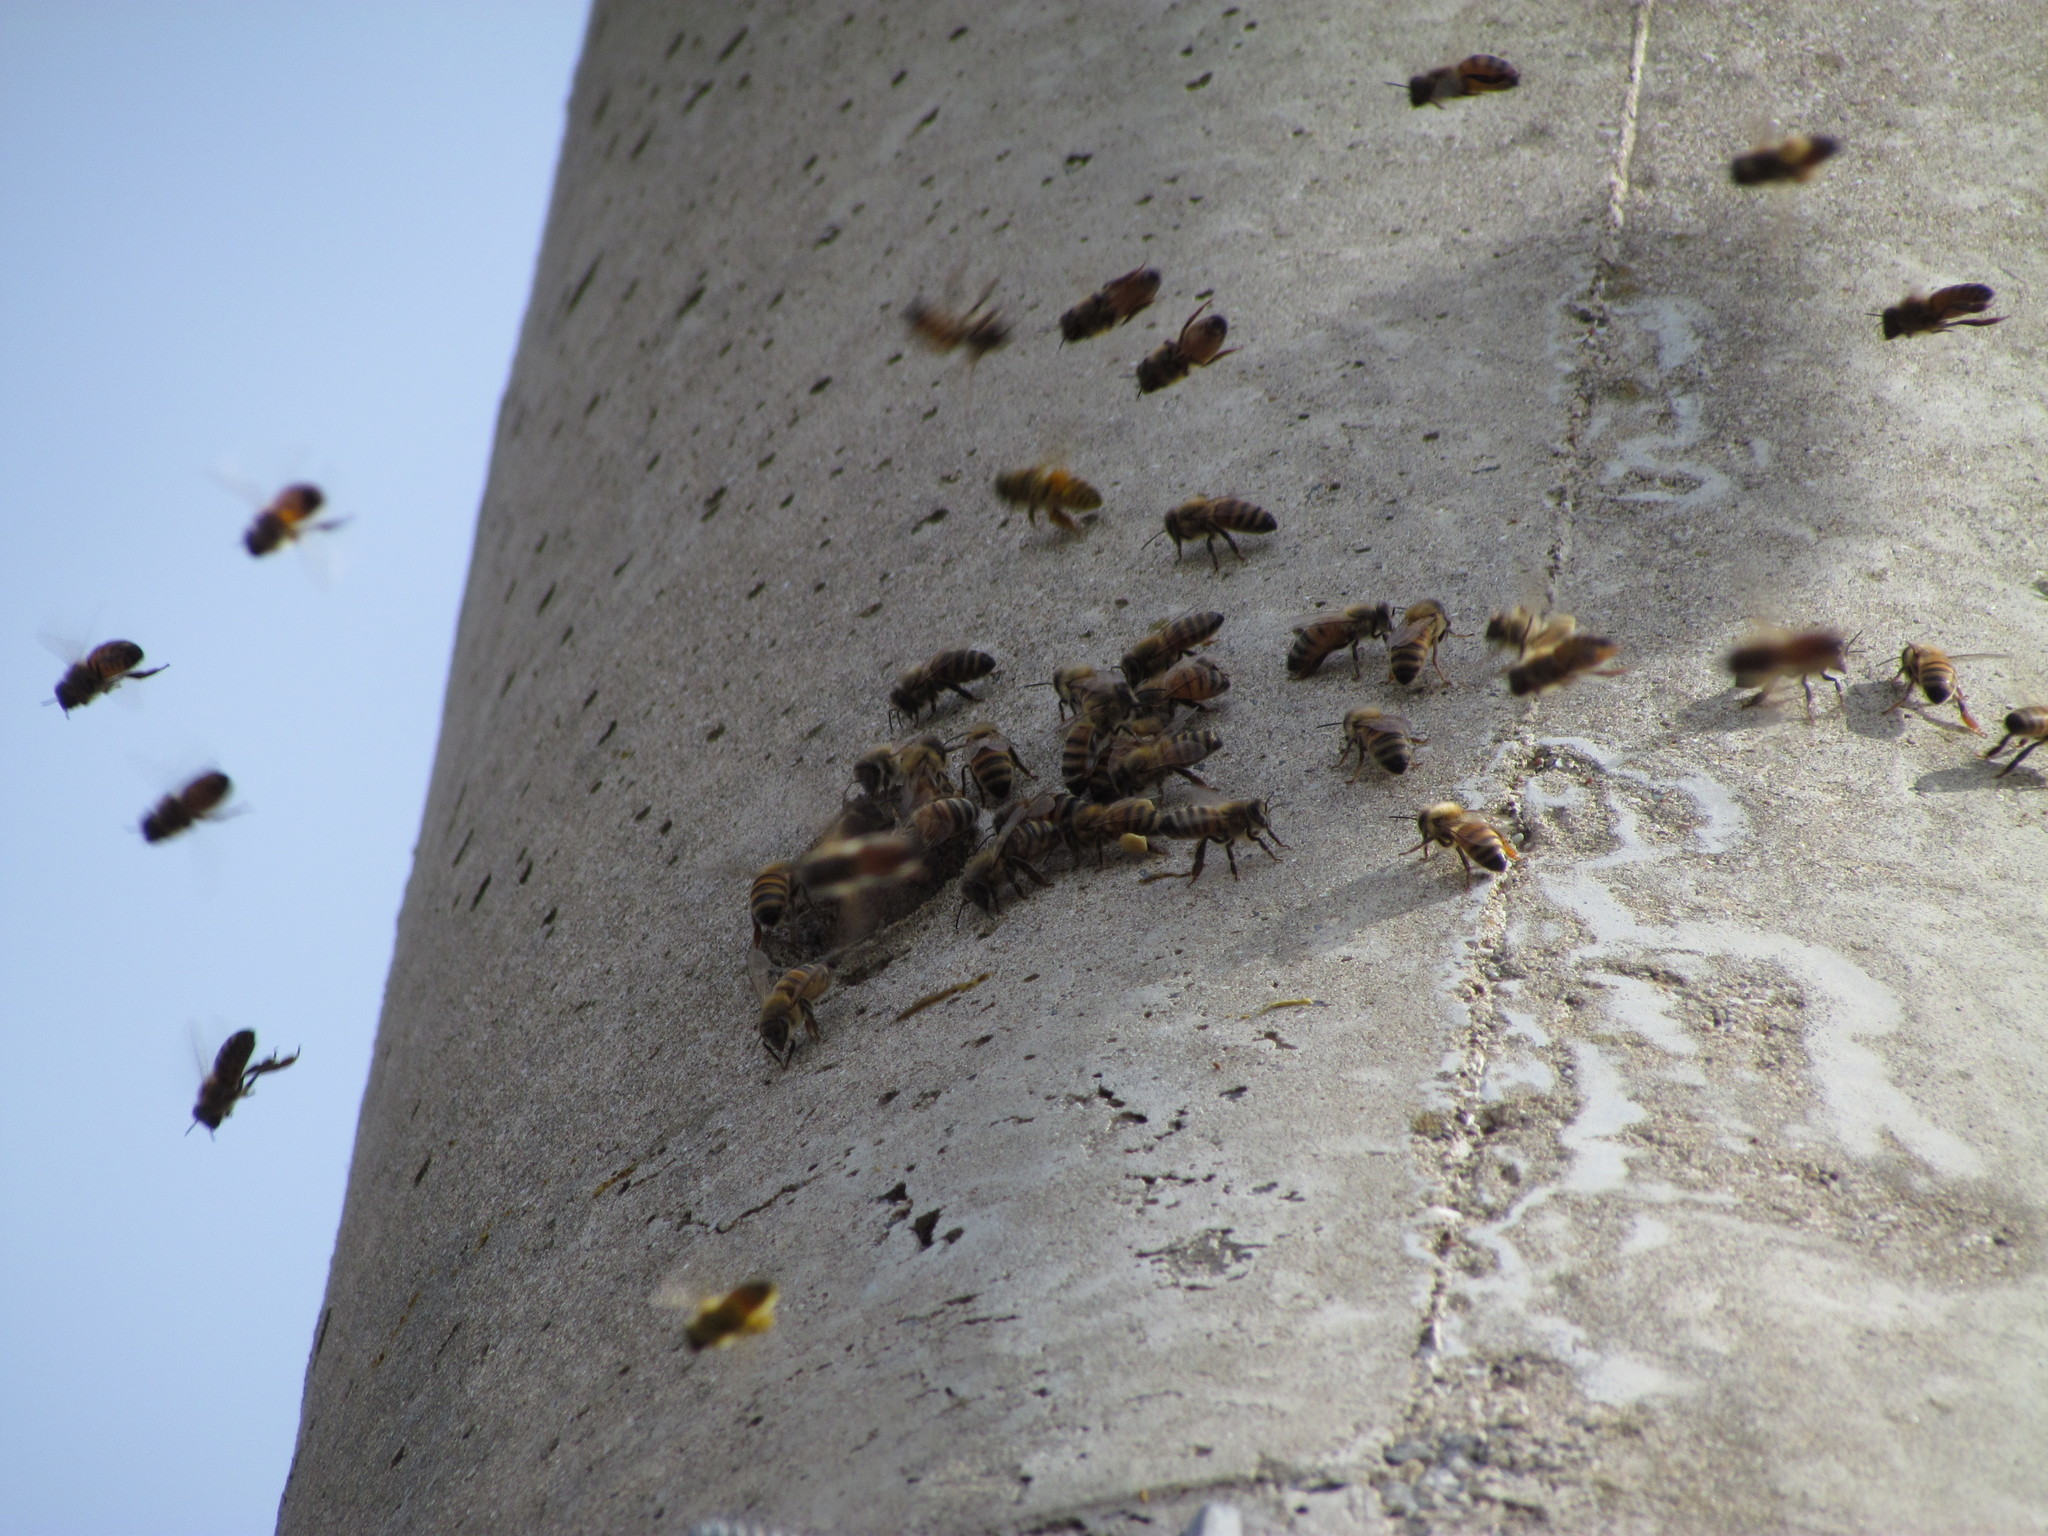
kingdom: Animalia
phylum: Arthropoda
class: Insecta
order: Hymenoptera
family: Apidae
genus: Apis
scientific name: Apis mellifera
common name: Honey bee
